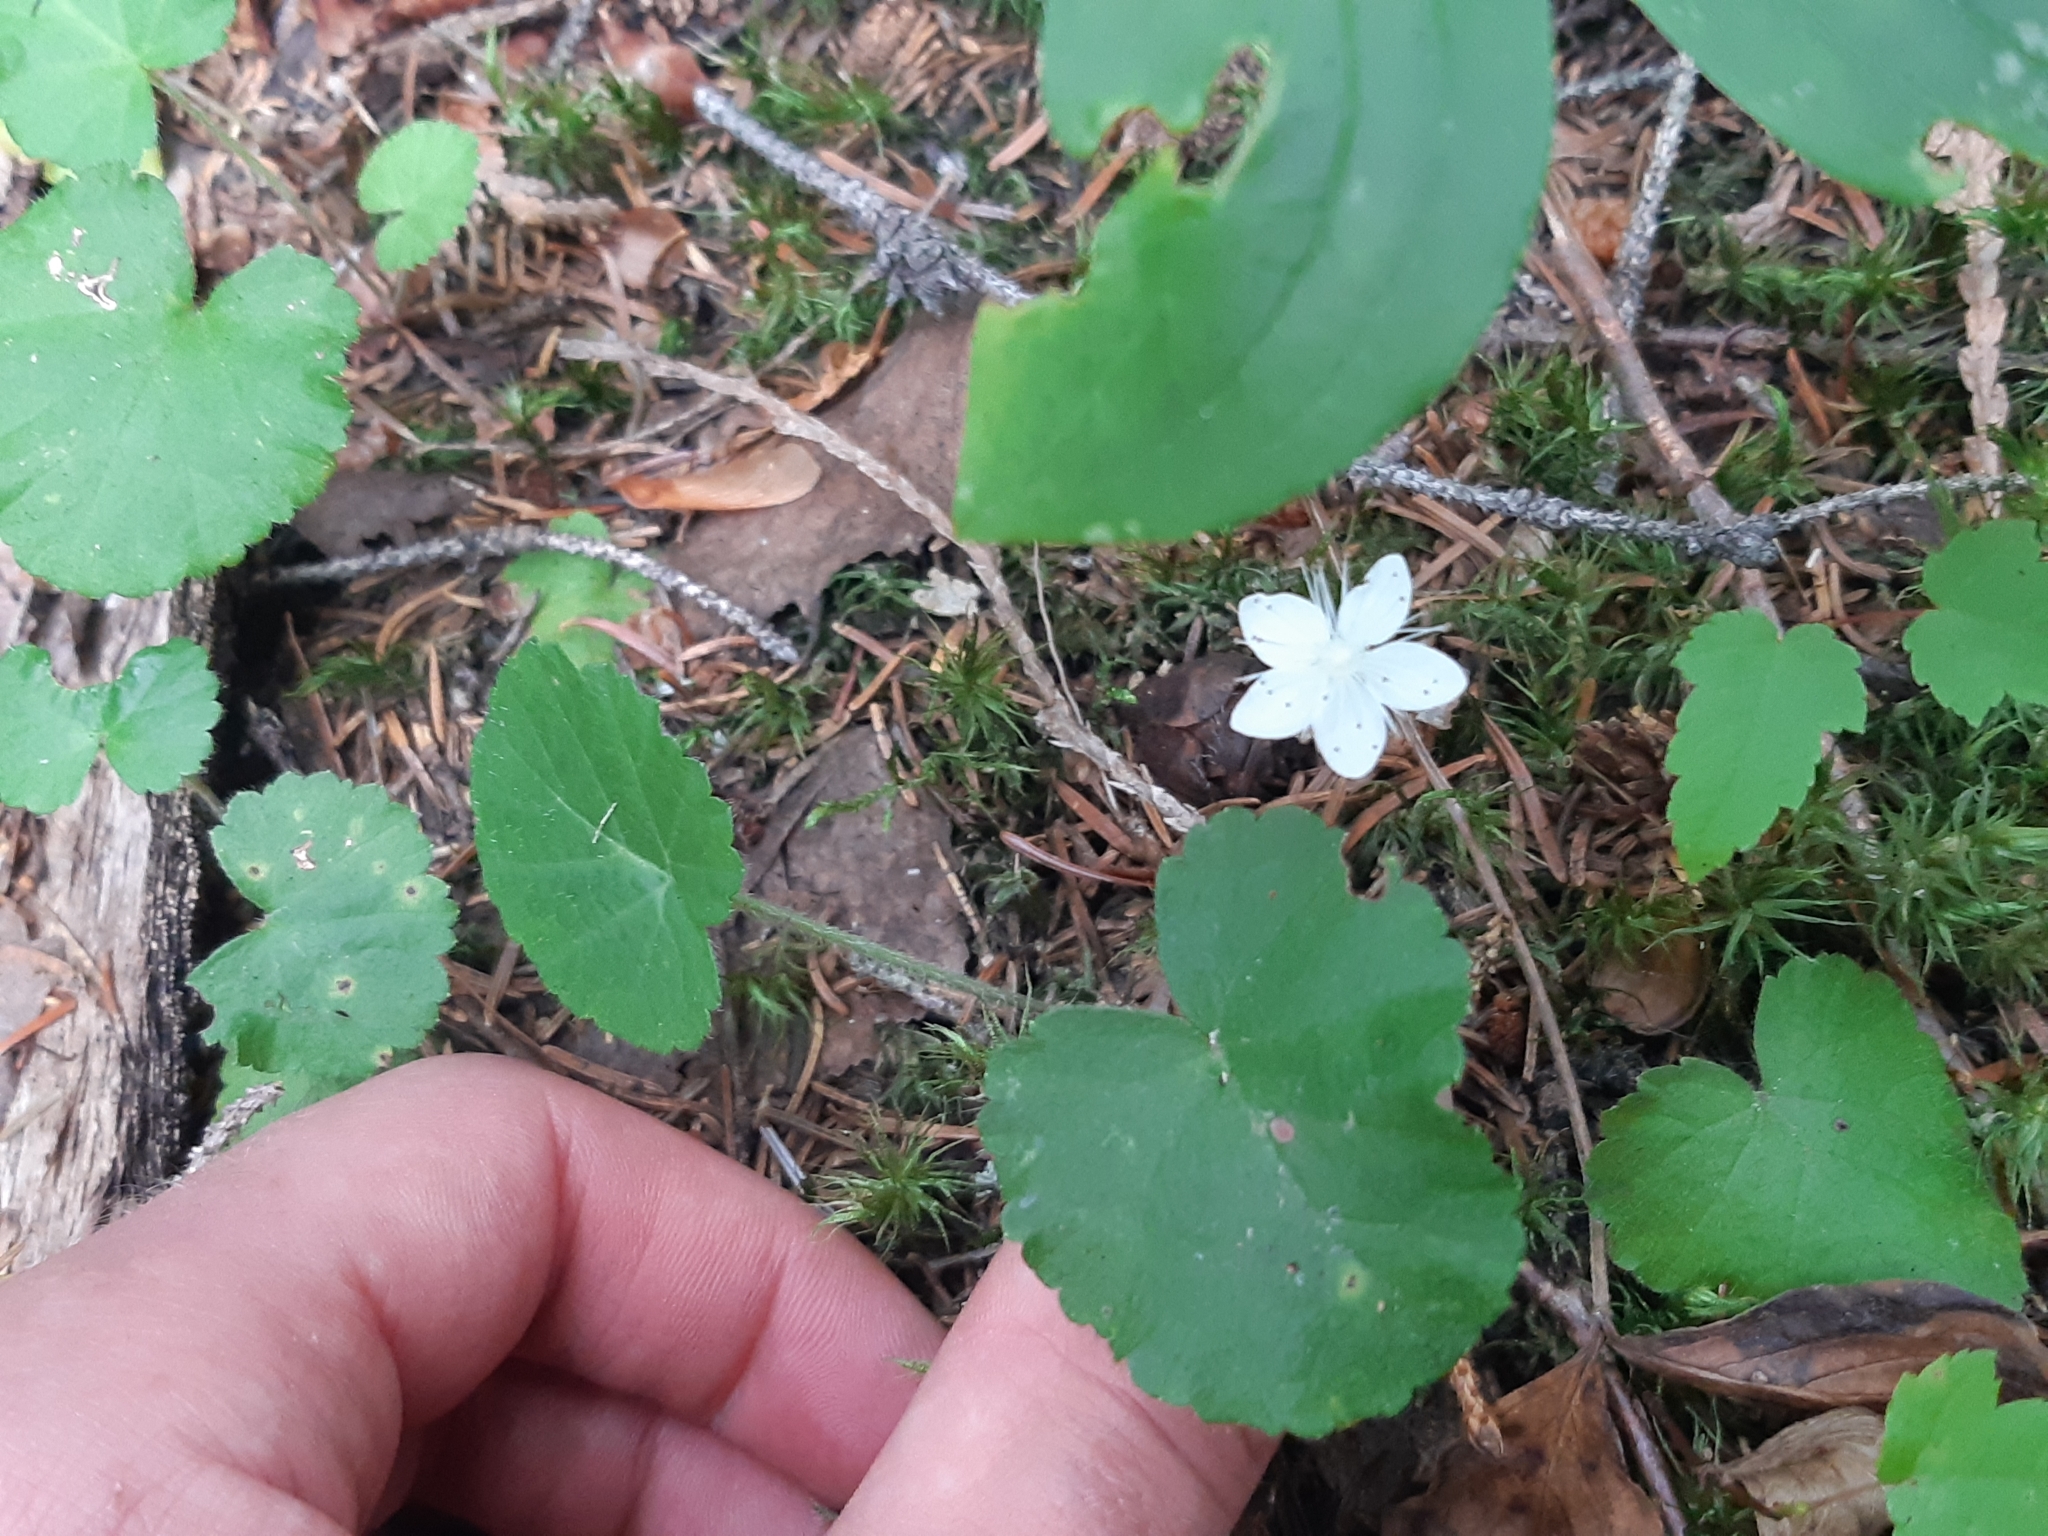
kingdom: Plantae
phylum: Tracheophyta
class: Magnoliopsida
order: Rosales
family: Rosaceae
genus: Dalibarda
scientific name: Dalibarda repens
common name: Dewdrop
